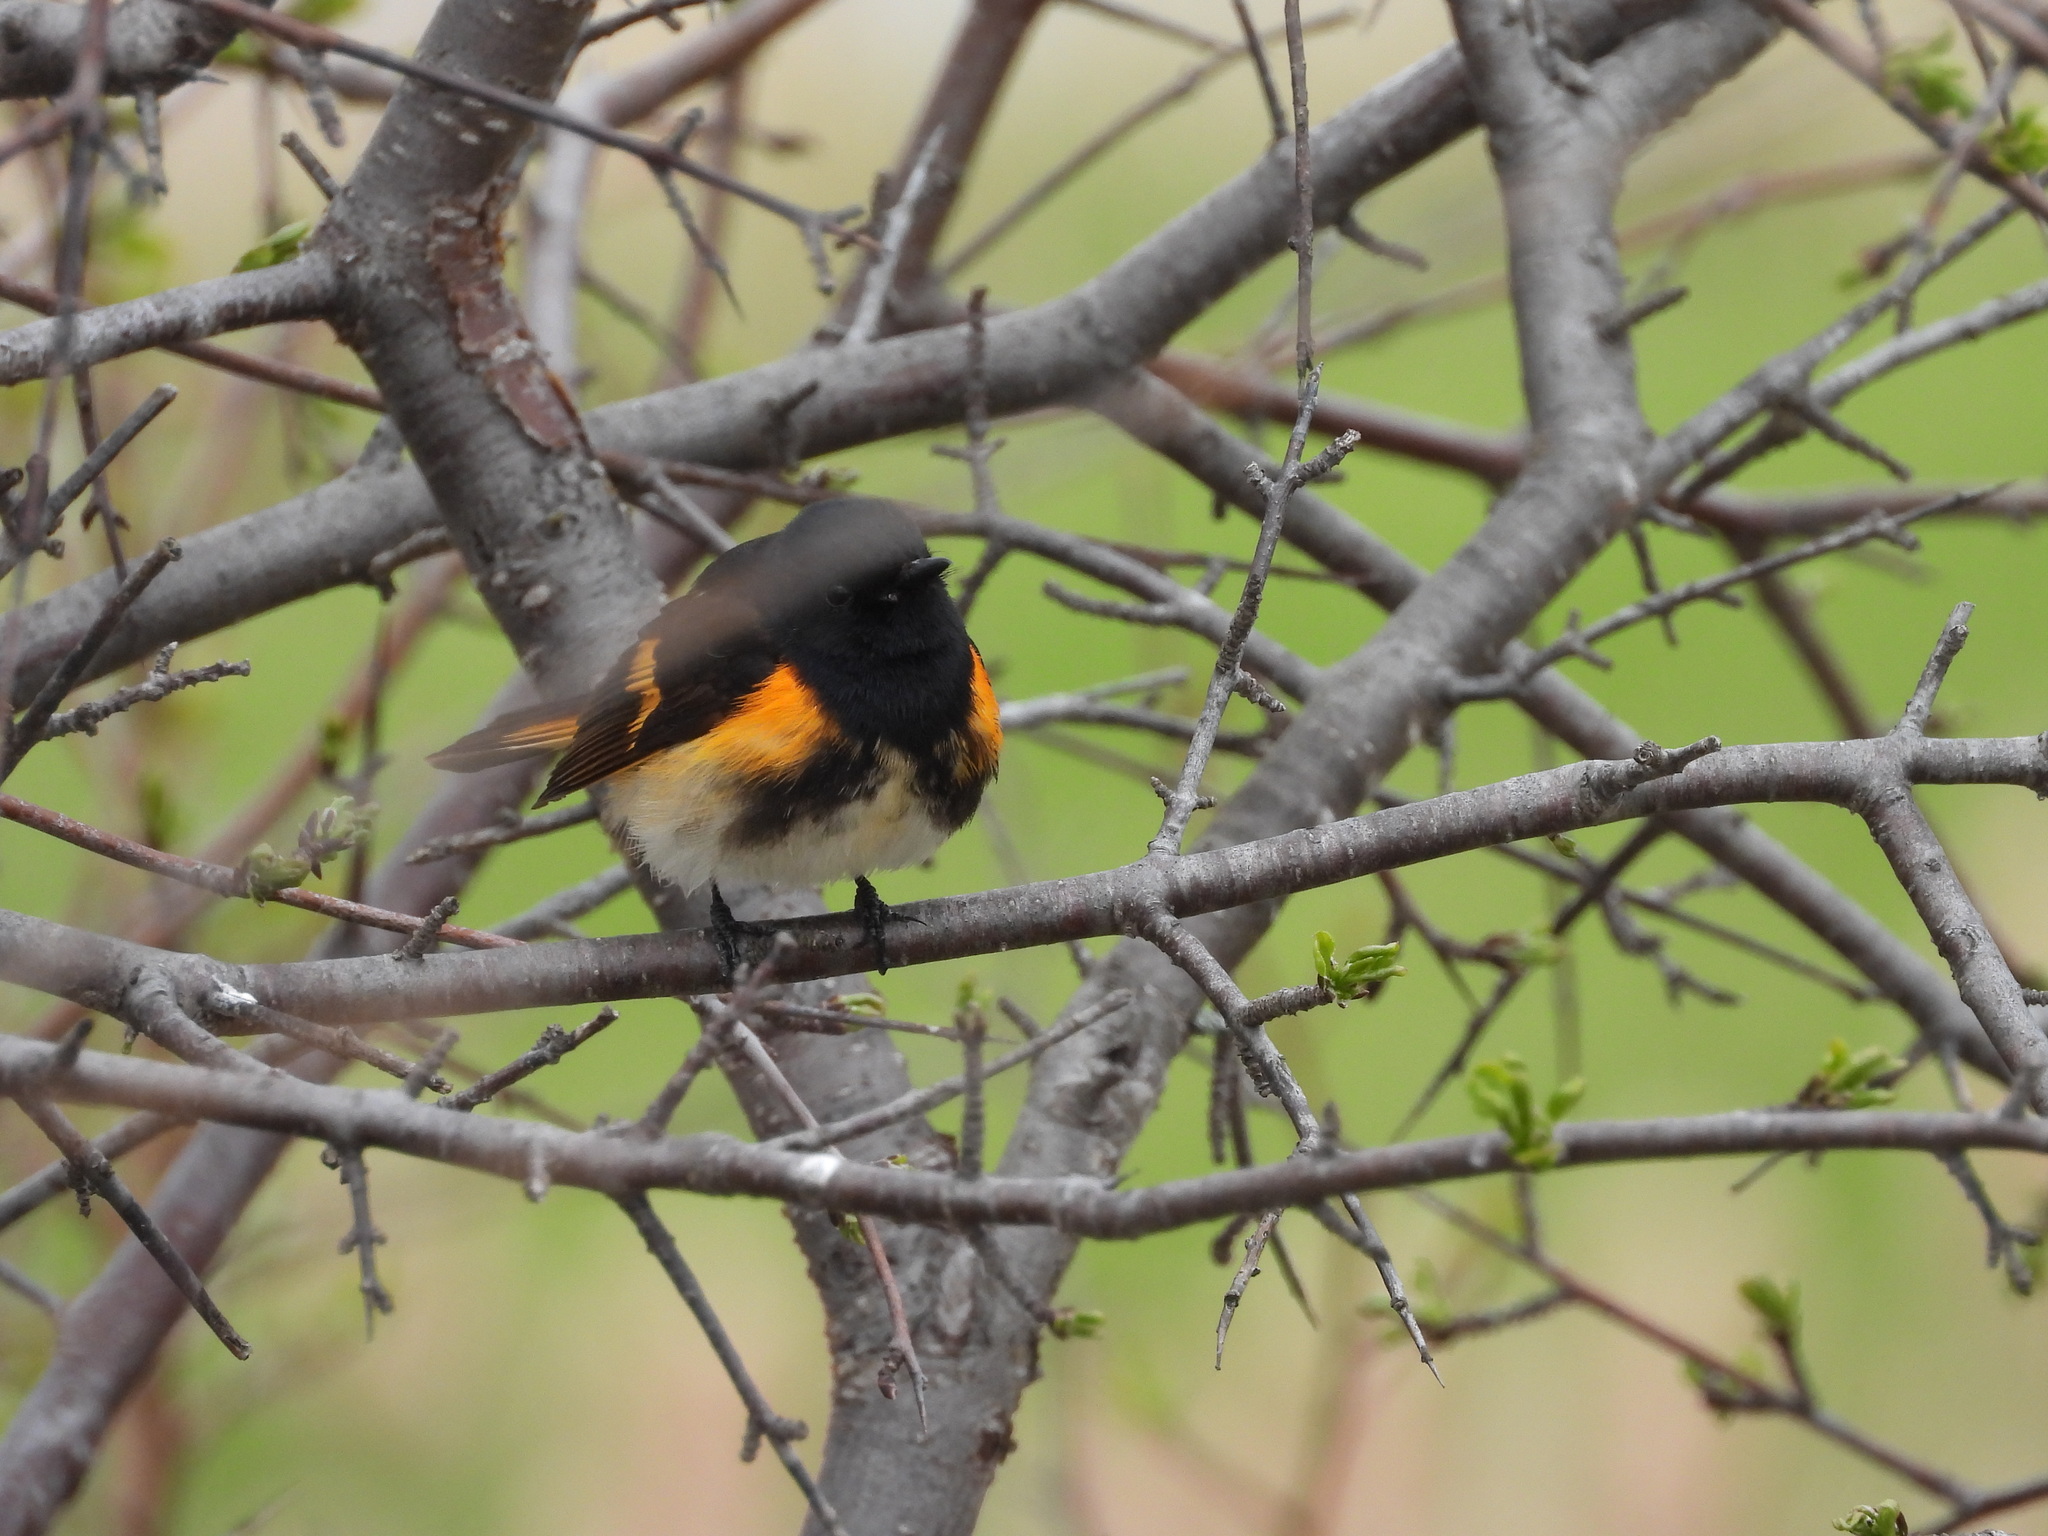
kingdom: Animalia
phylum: Chordata
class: Aves
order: Passeriformes
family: Parulidae
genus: Setophaga
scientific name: Setophaga ruticilla
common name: American redstart
